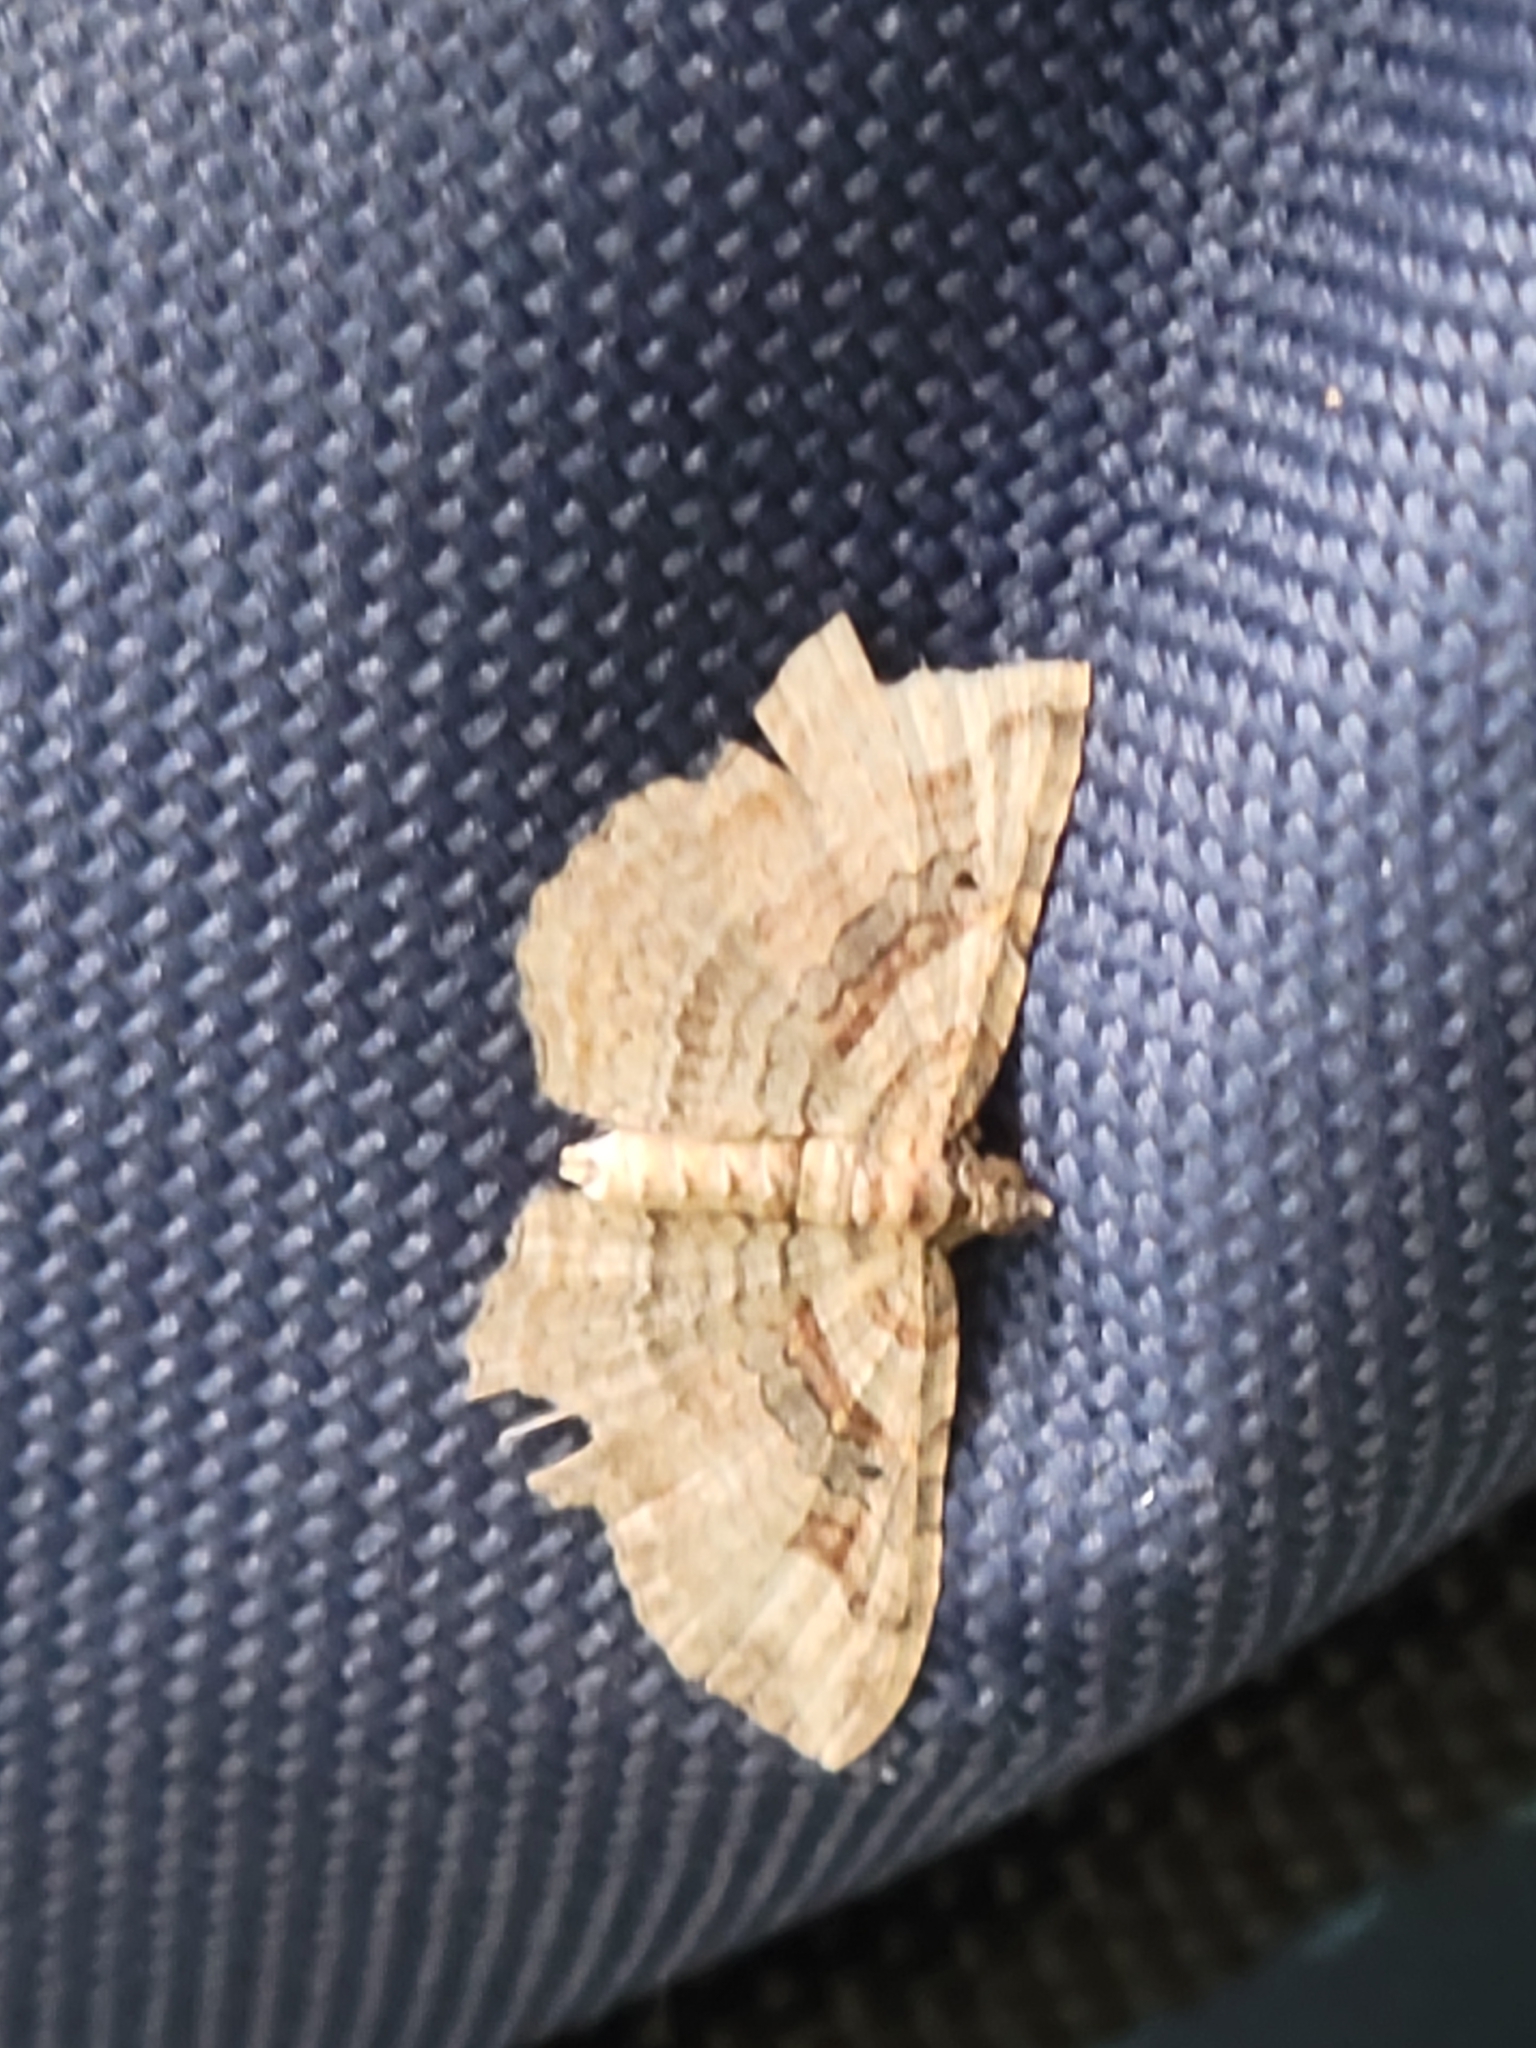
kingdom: Animalia
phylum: Arthropoda
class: Insecta
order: Lepidoptera
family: Geometridae
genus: Costaconvexa
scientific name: Costaconvexa centrostrigaria
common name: Bent-line carpet
